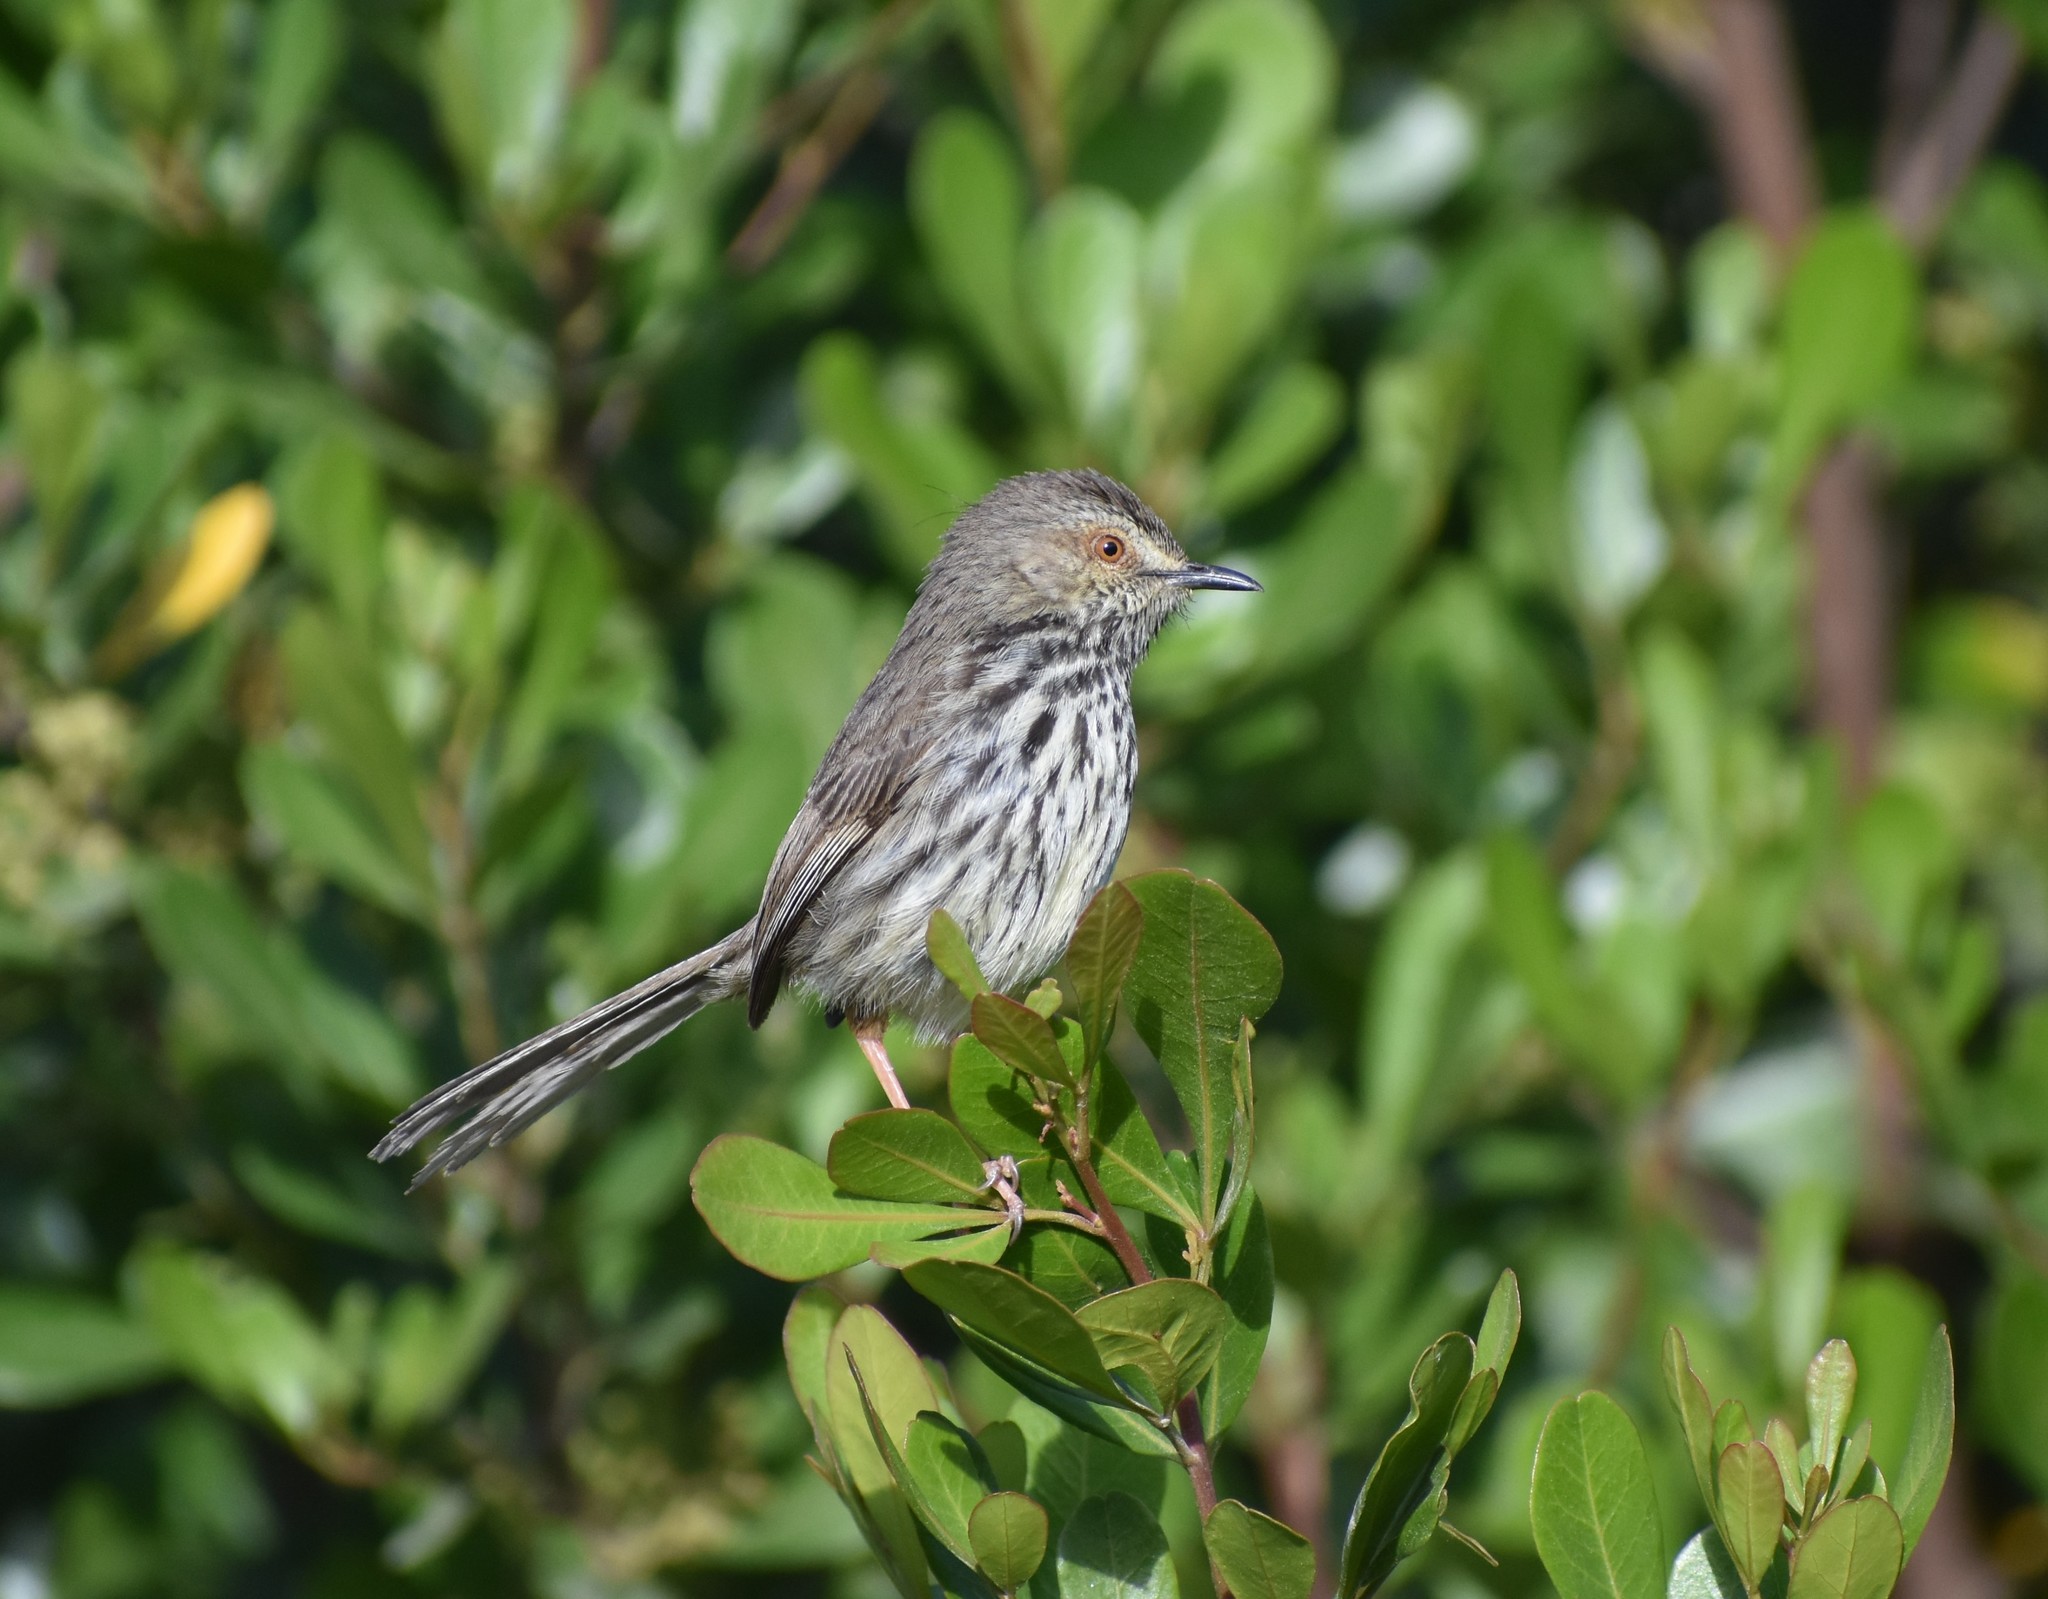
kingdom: Animalia
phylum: Chordata
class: Aves
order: Passeriformes
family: Cisticolidae
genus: Prinia
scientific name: Prinia maculosa
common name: Karoo prinia
